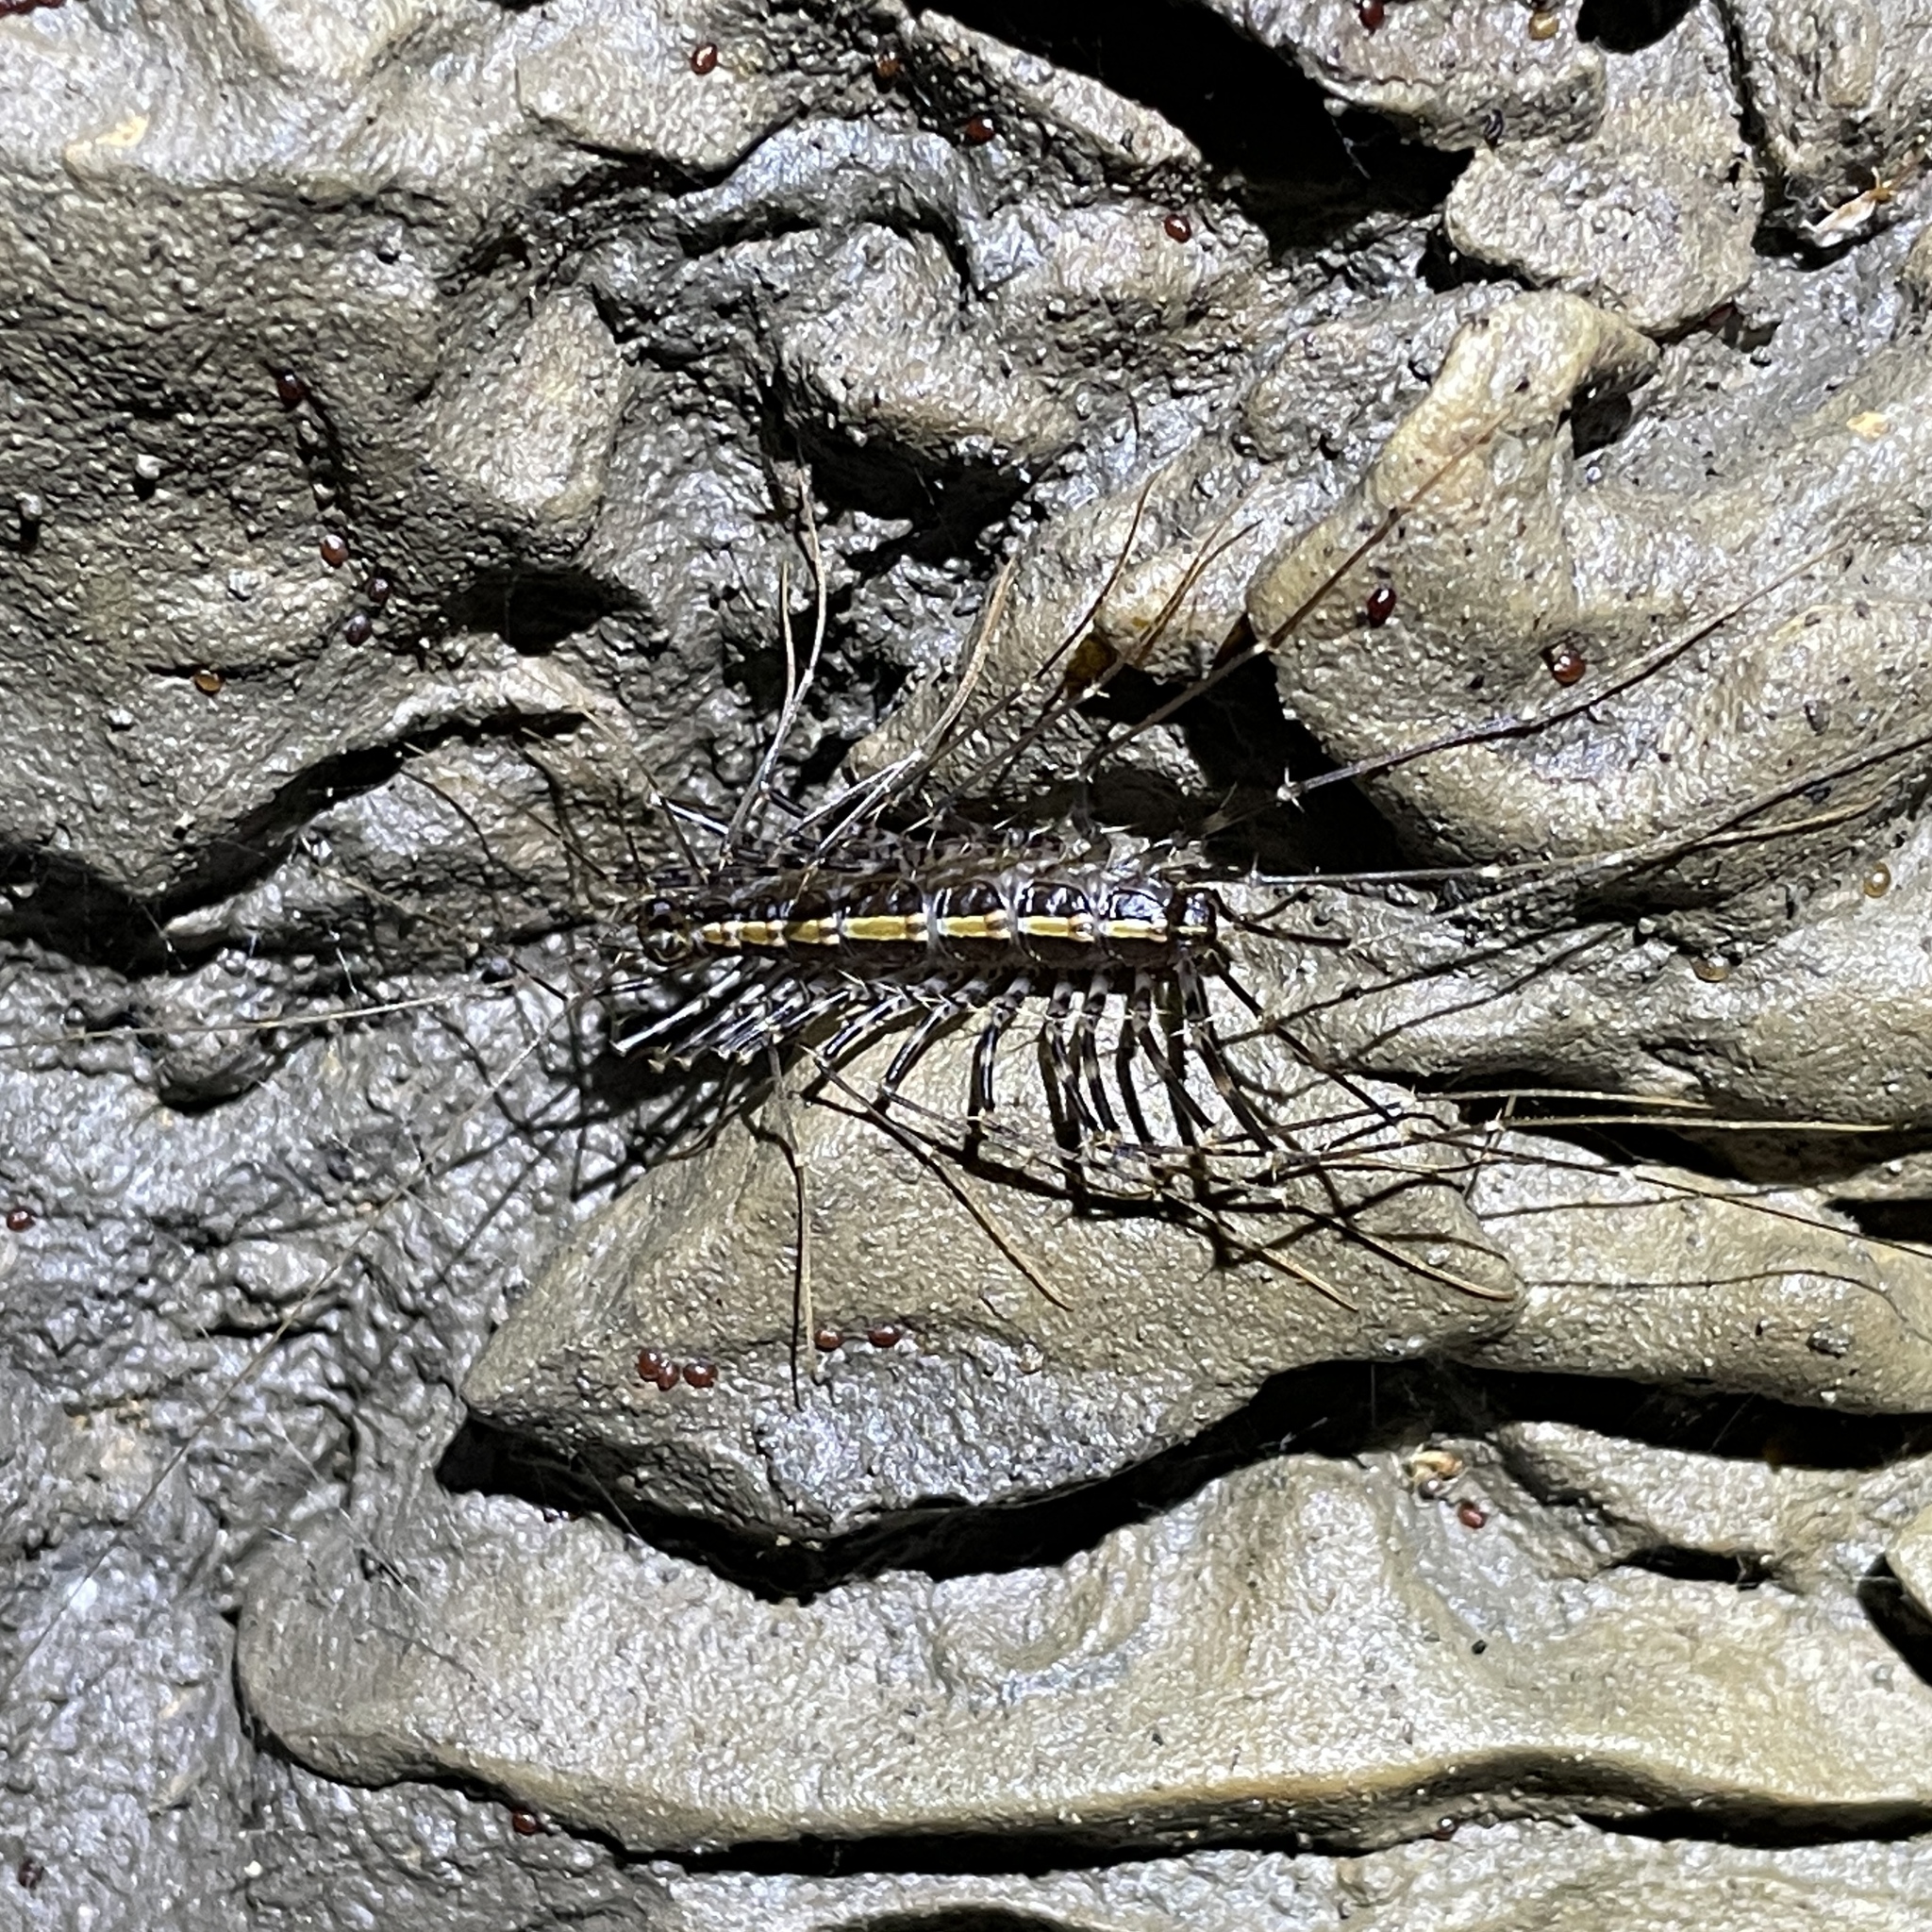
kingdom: Animalia
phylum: Arthropoda
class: Chilopoda
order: Scutigeromorpha
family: Pselliodidae
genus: Sphendononema
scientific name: Sphendononema guildingii
